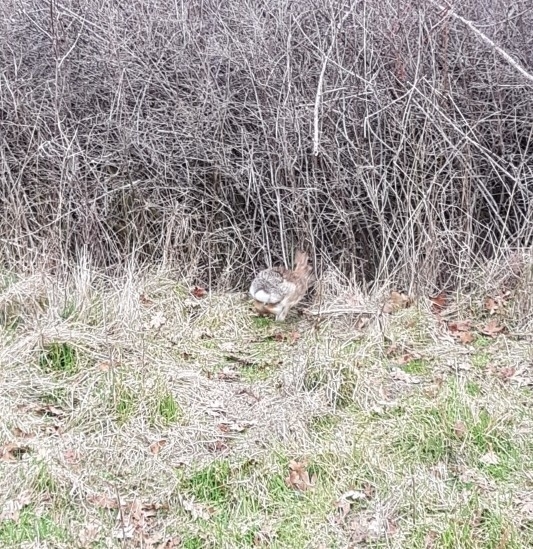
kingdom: Animalia
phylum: Chordata
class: Mammalia
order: Lagomorpha
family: Leporidae
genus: Sylvilagus
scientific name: Sylvilagus floridanus
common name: Eastern cottontail
